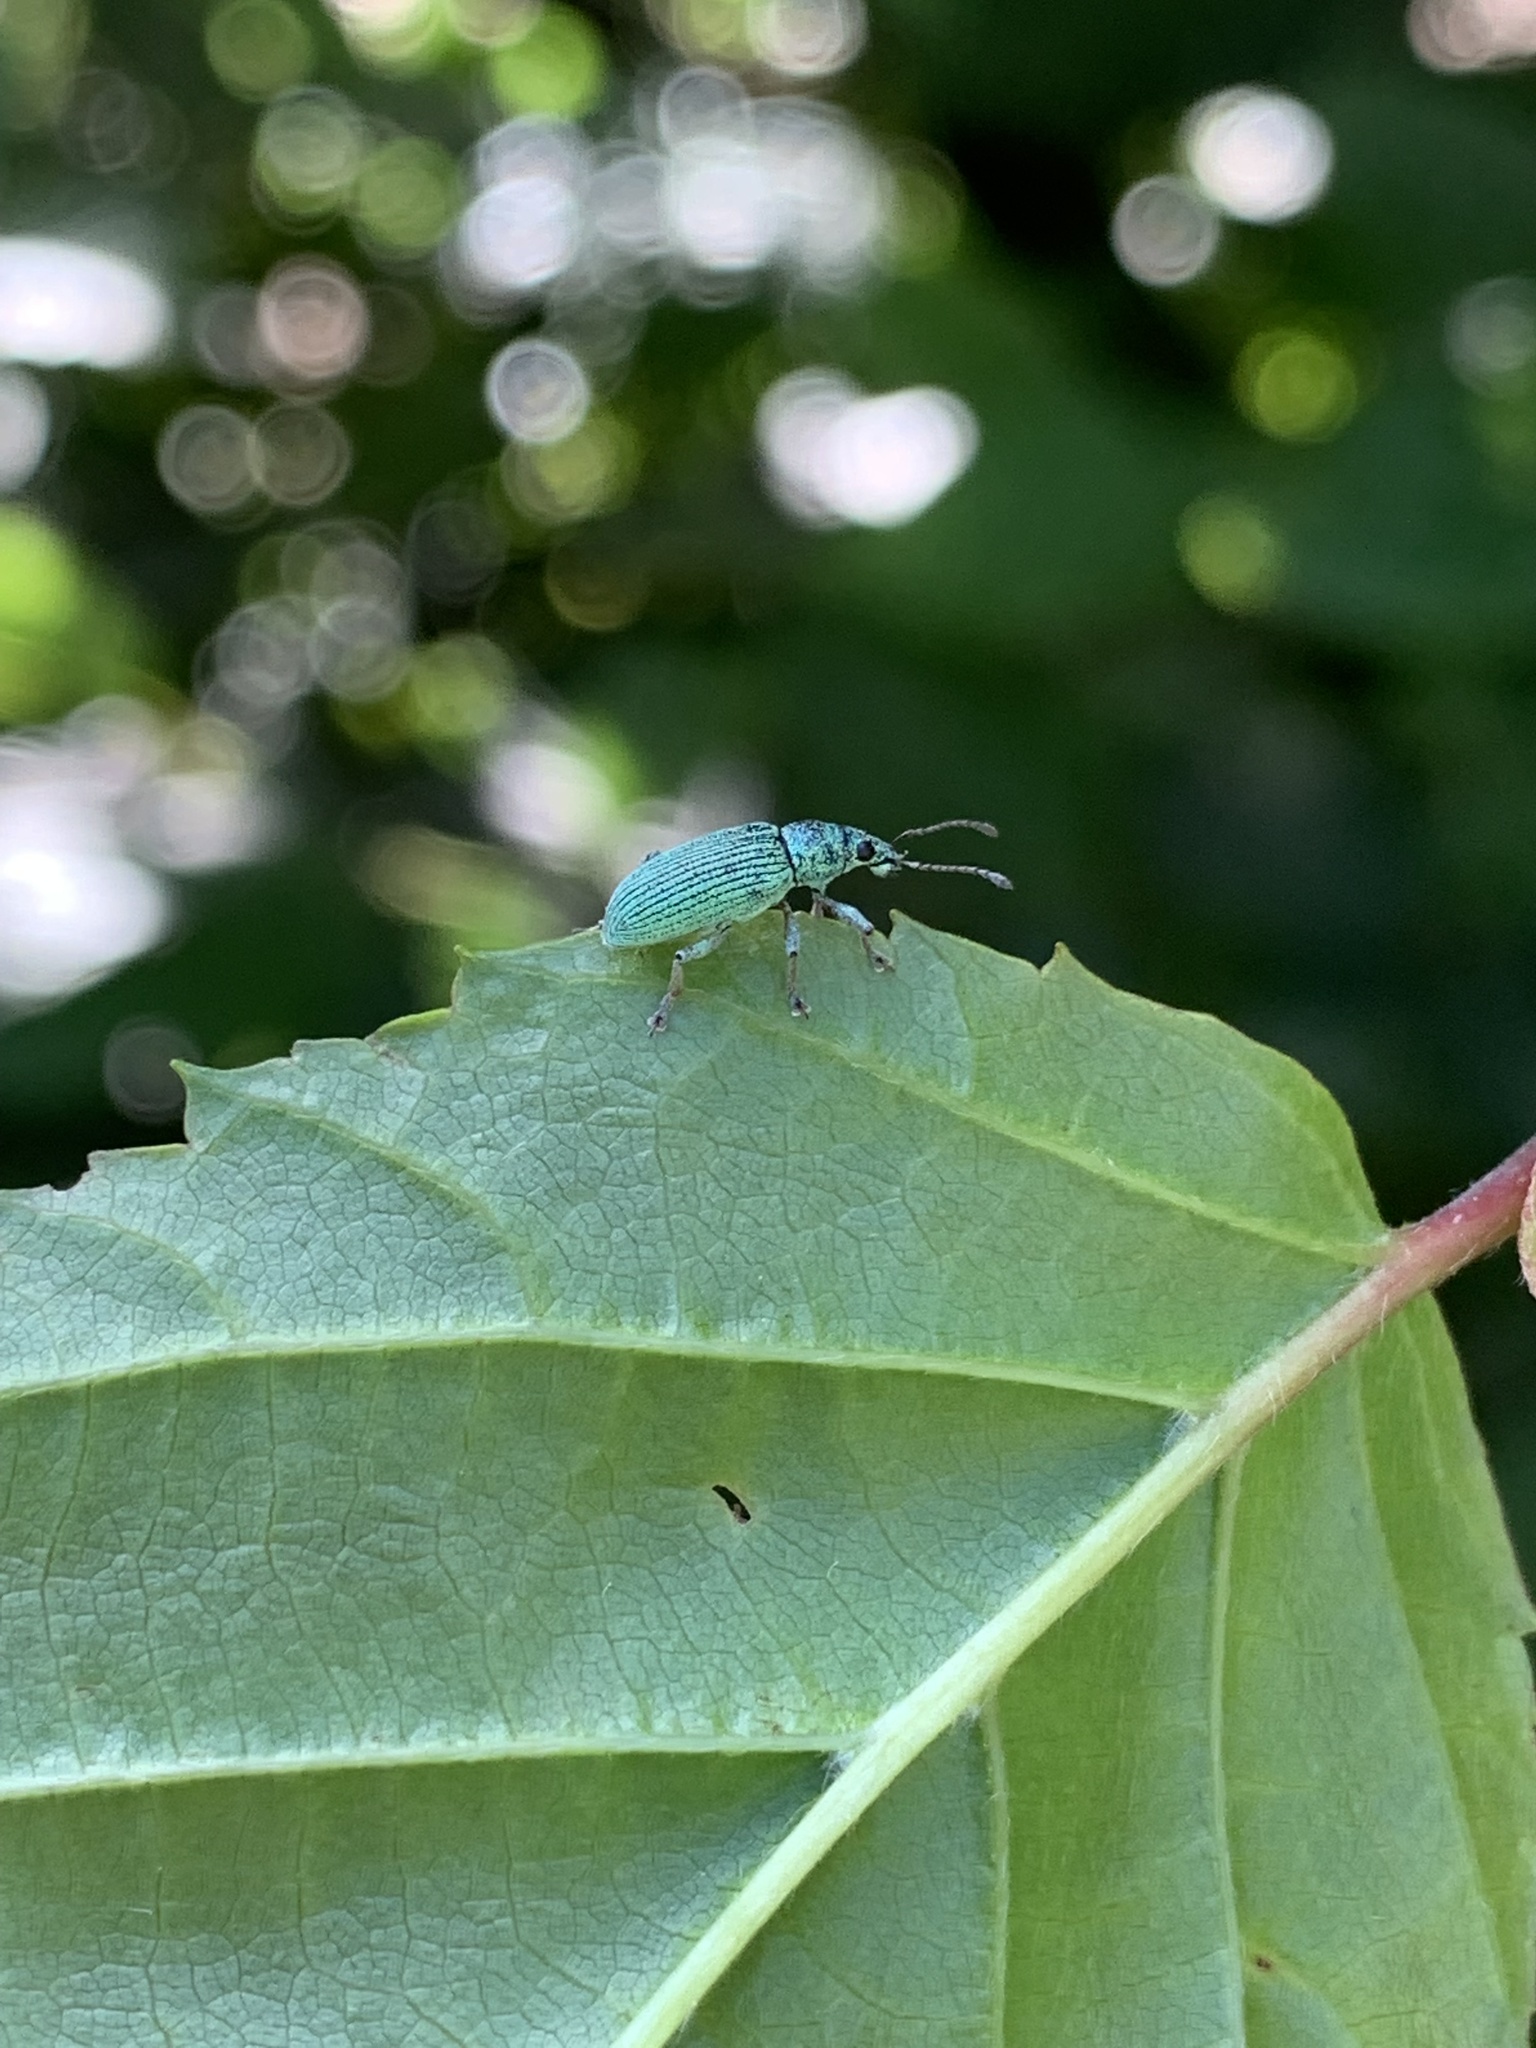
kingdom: Animalia
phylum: Arthropoda
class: Insecta
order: Coleoptera
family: Curculionidae
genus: Polydrusus
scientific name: Polydrusus formosus
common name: Weevil
